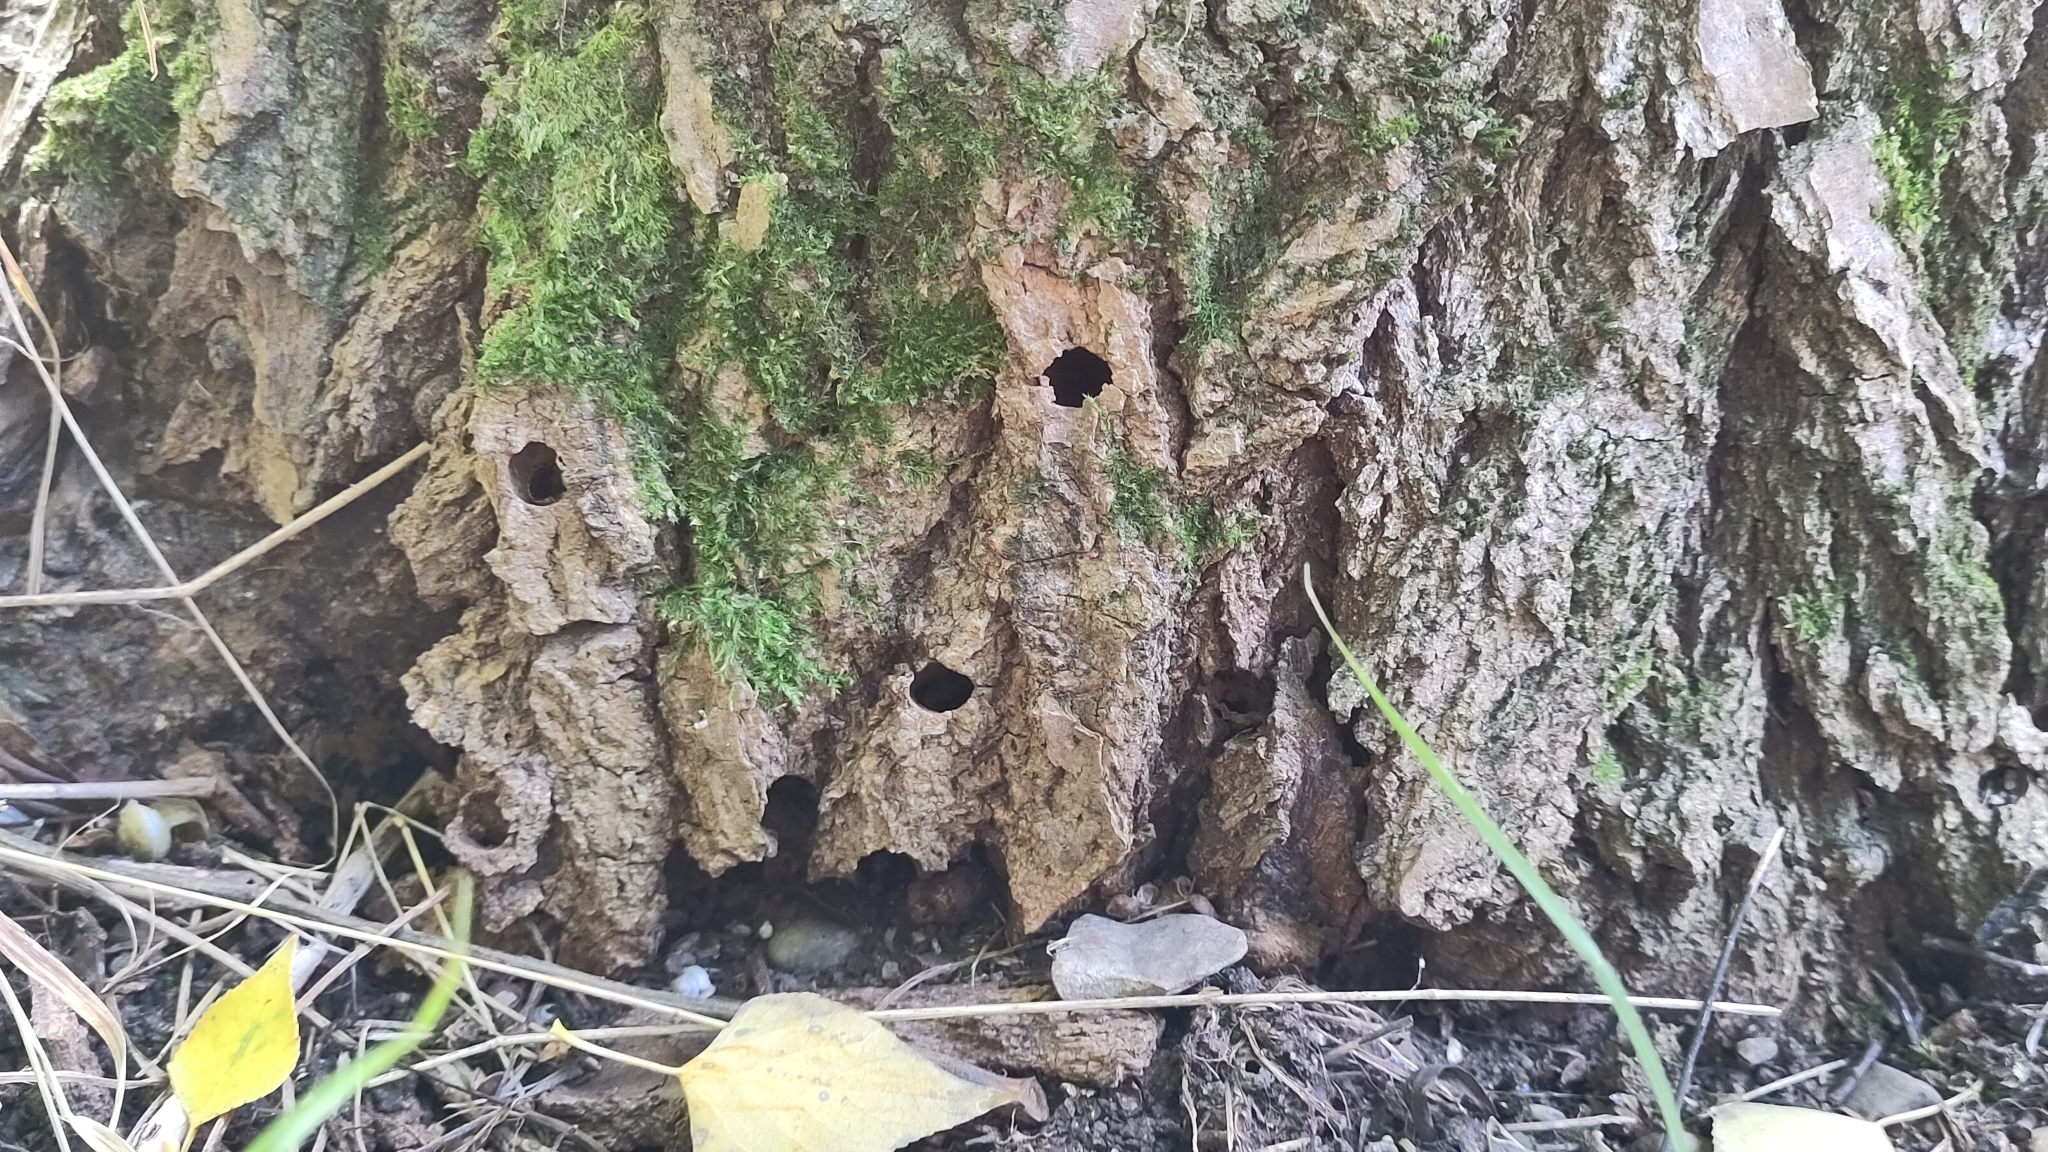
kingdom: Animalia
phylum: Arthropoda
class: Insecta
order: Lepidoptera
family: Sesiidae
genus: Sesia
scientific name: Sesia apiformis
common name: Hornet moth
